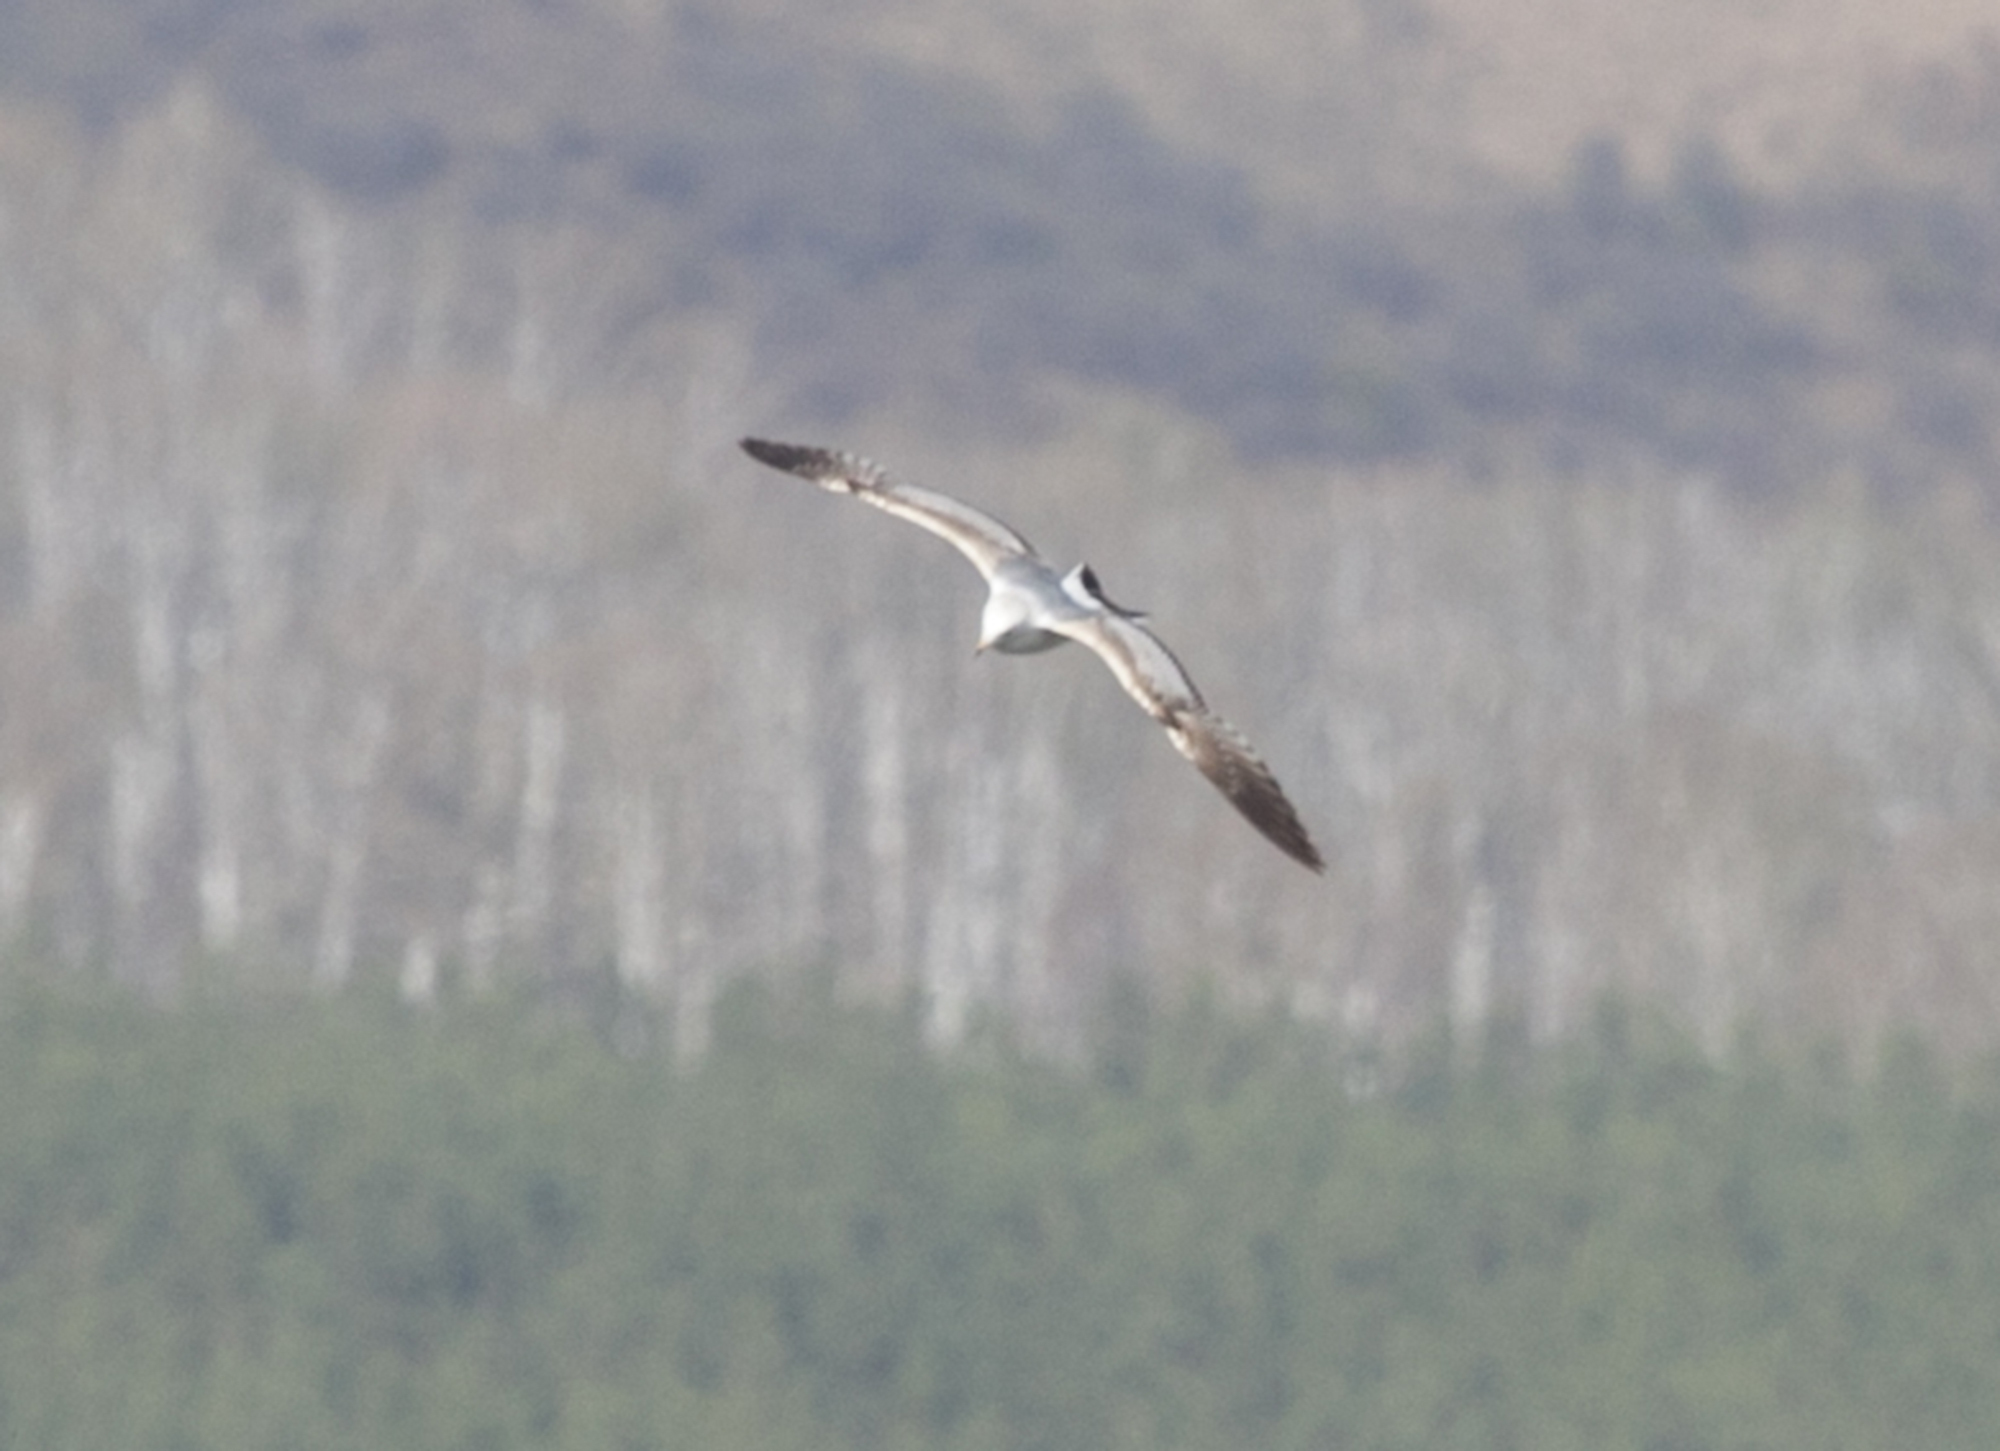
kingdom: Animalia
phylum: Chordata
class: Aves
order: Charadriiformes
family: Laridae
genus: Larus
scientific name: Larus canus
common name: Mew gull
